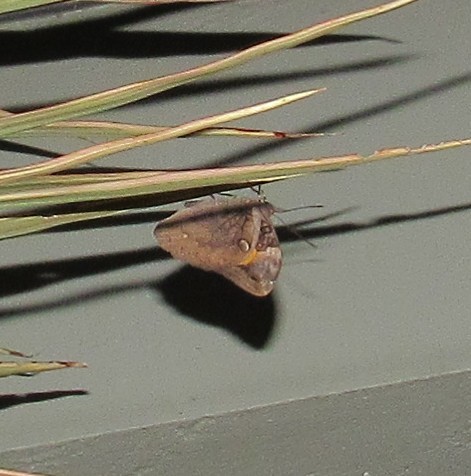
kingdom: Animalia
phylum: Arthropoda
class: Insecta
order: Lepidoptera
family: Nymphalidae
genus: Opsiphanes
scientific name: Opsiphanes invirae
